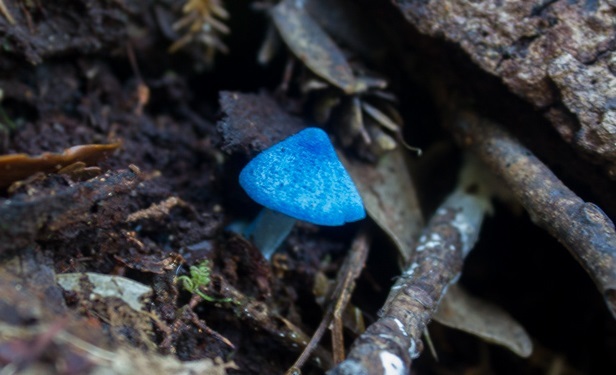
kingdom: Fungi
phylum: Basidiomycota
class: Agaricomycetes
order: Agaricales
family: Entolomataceae
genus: Entoloma
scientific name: Entoloma hochstetteri
